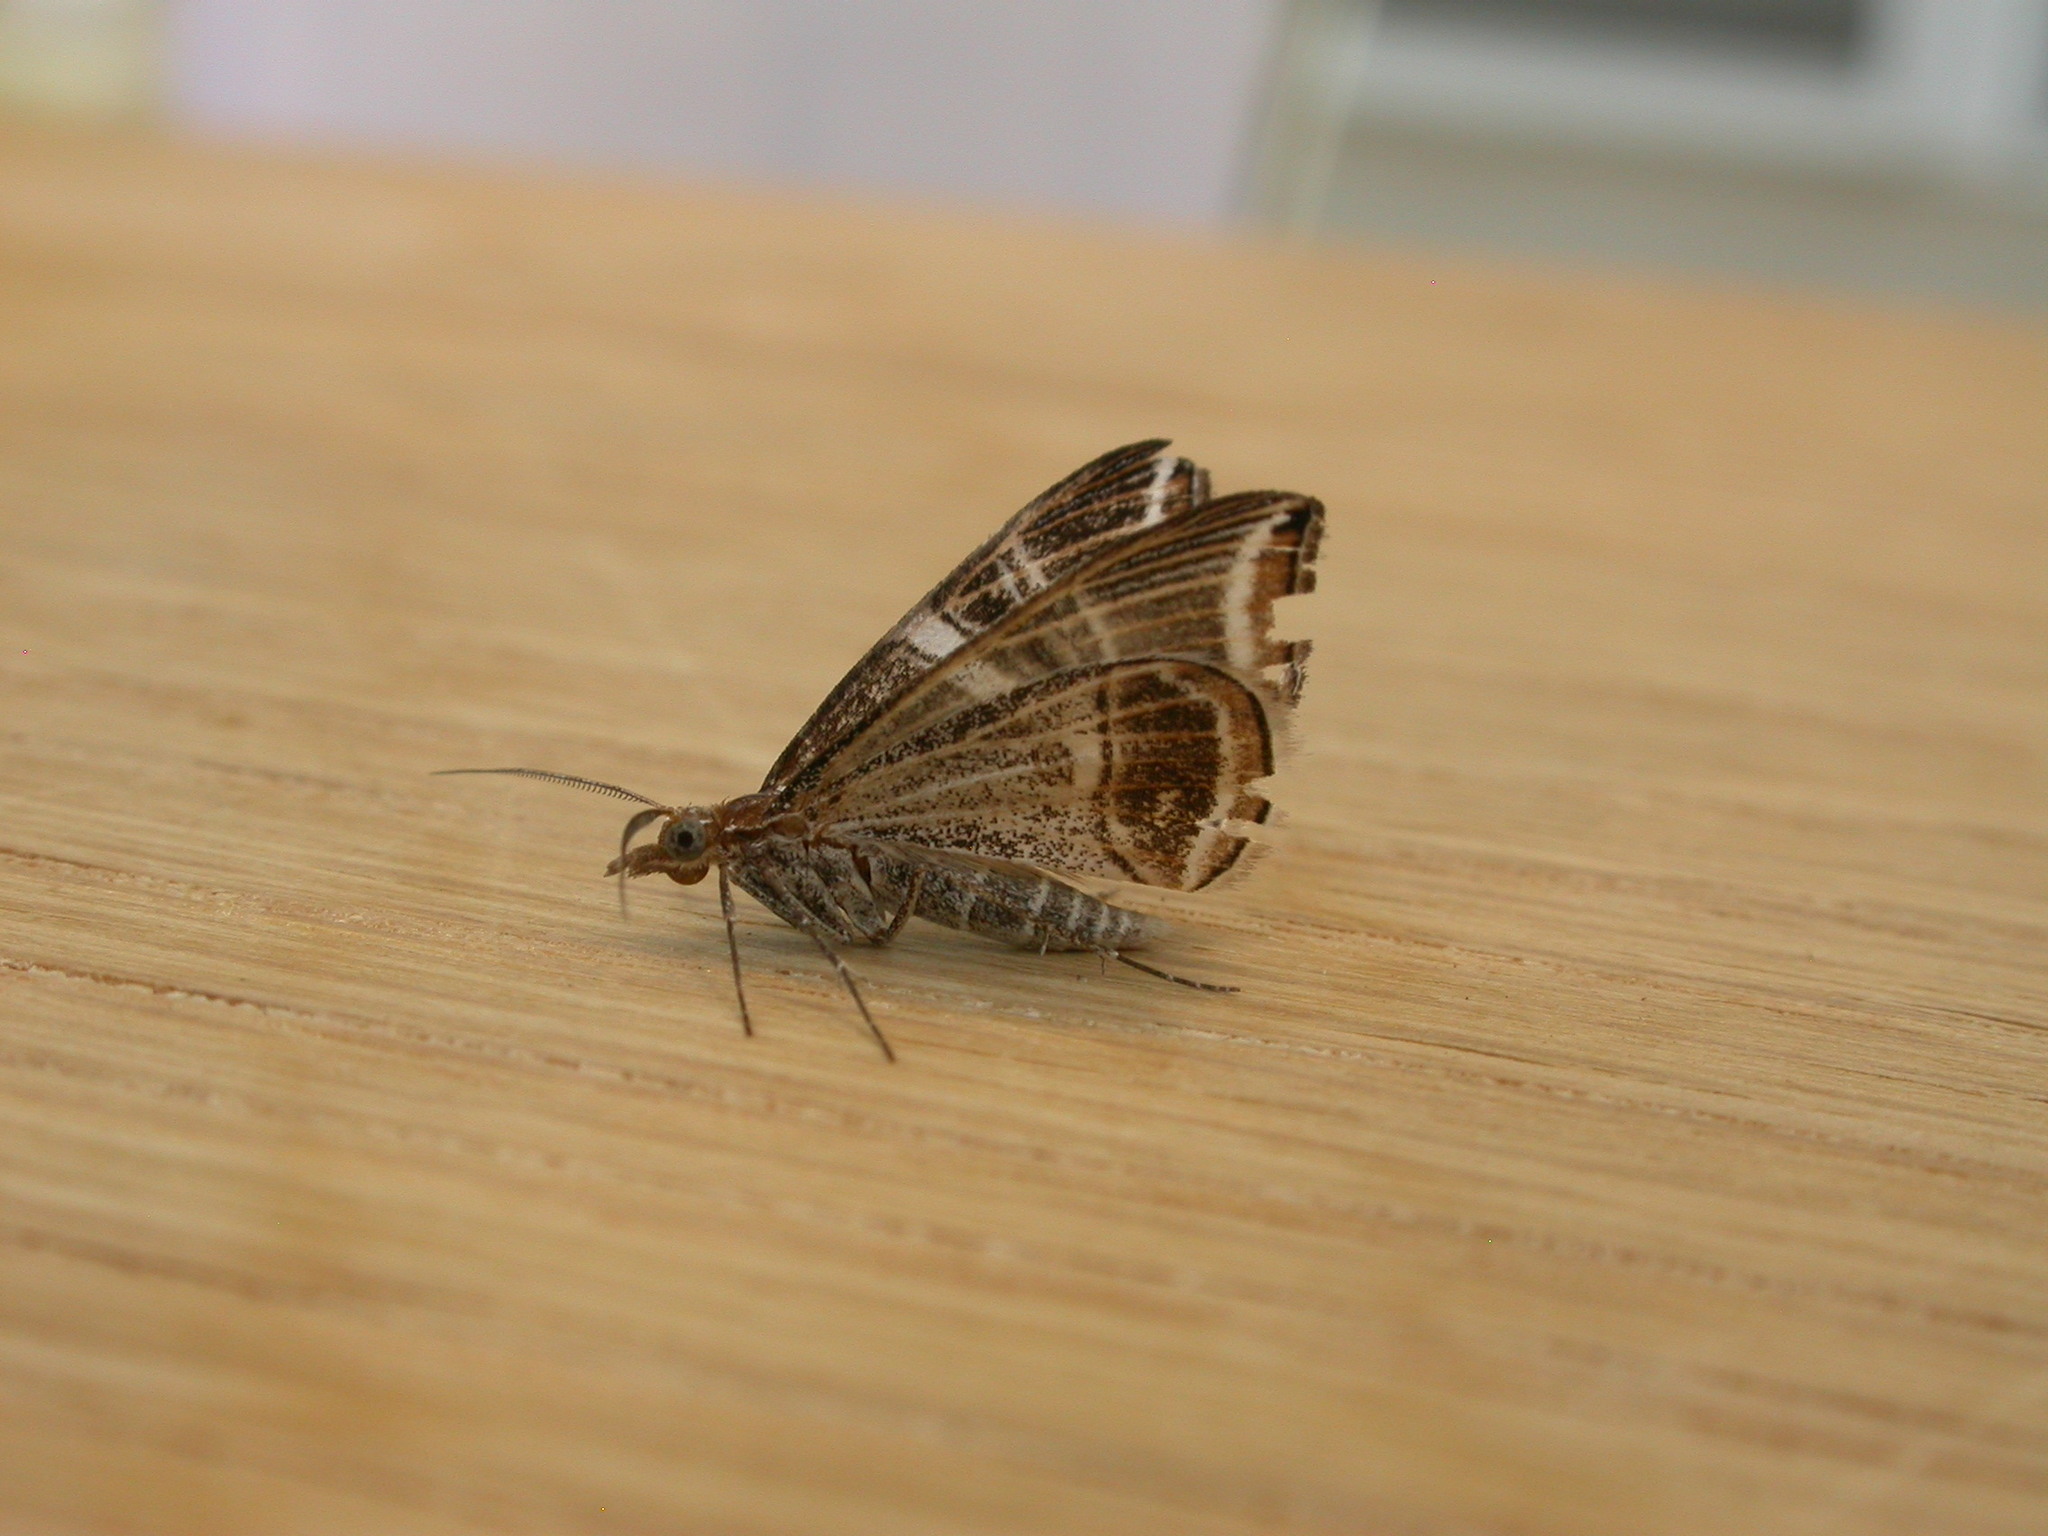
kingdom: Animalia
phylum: Arthropoda
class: Insecta
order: Lepidoptera
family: Geometridae
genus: Phrataria
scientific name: Phrataria transcissata
